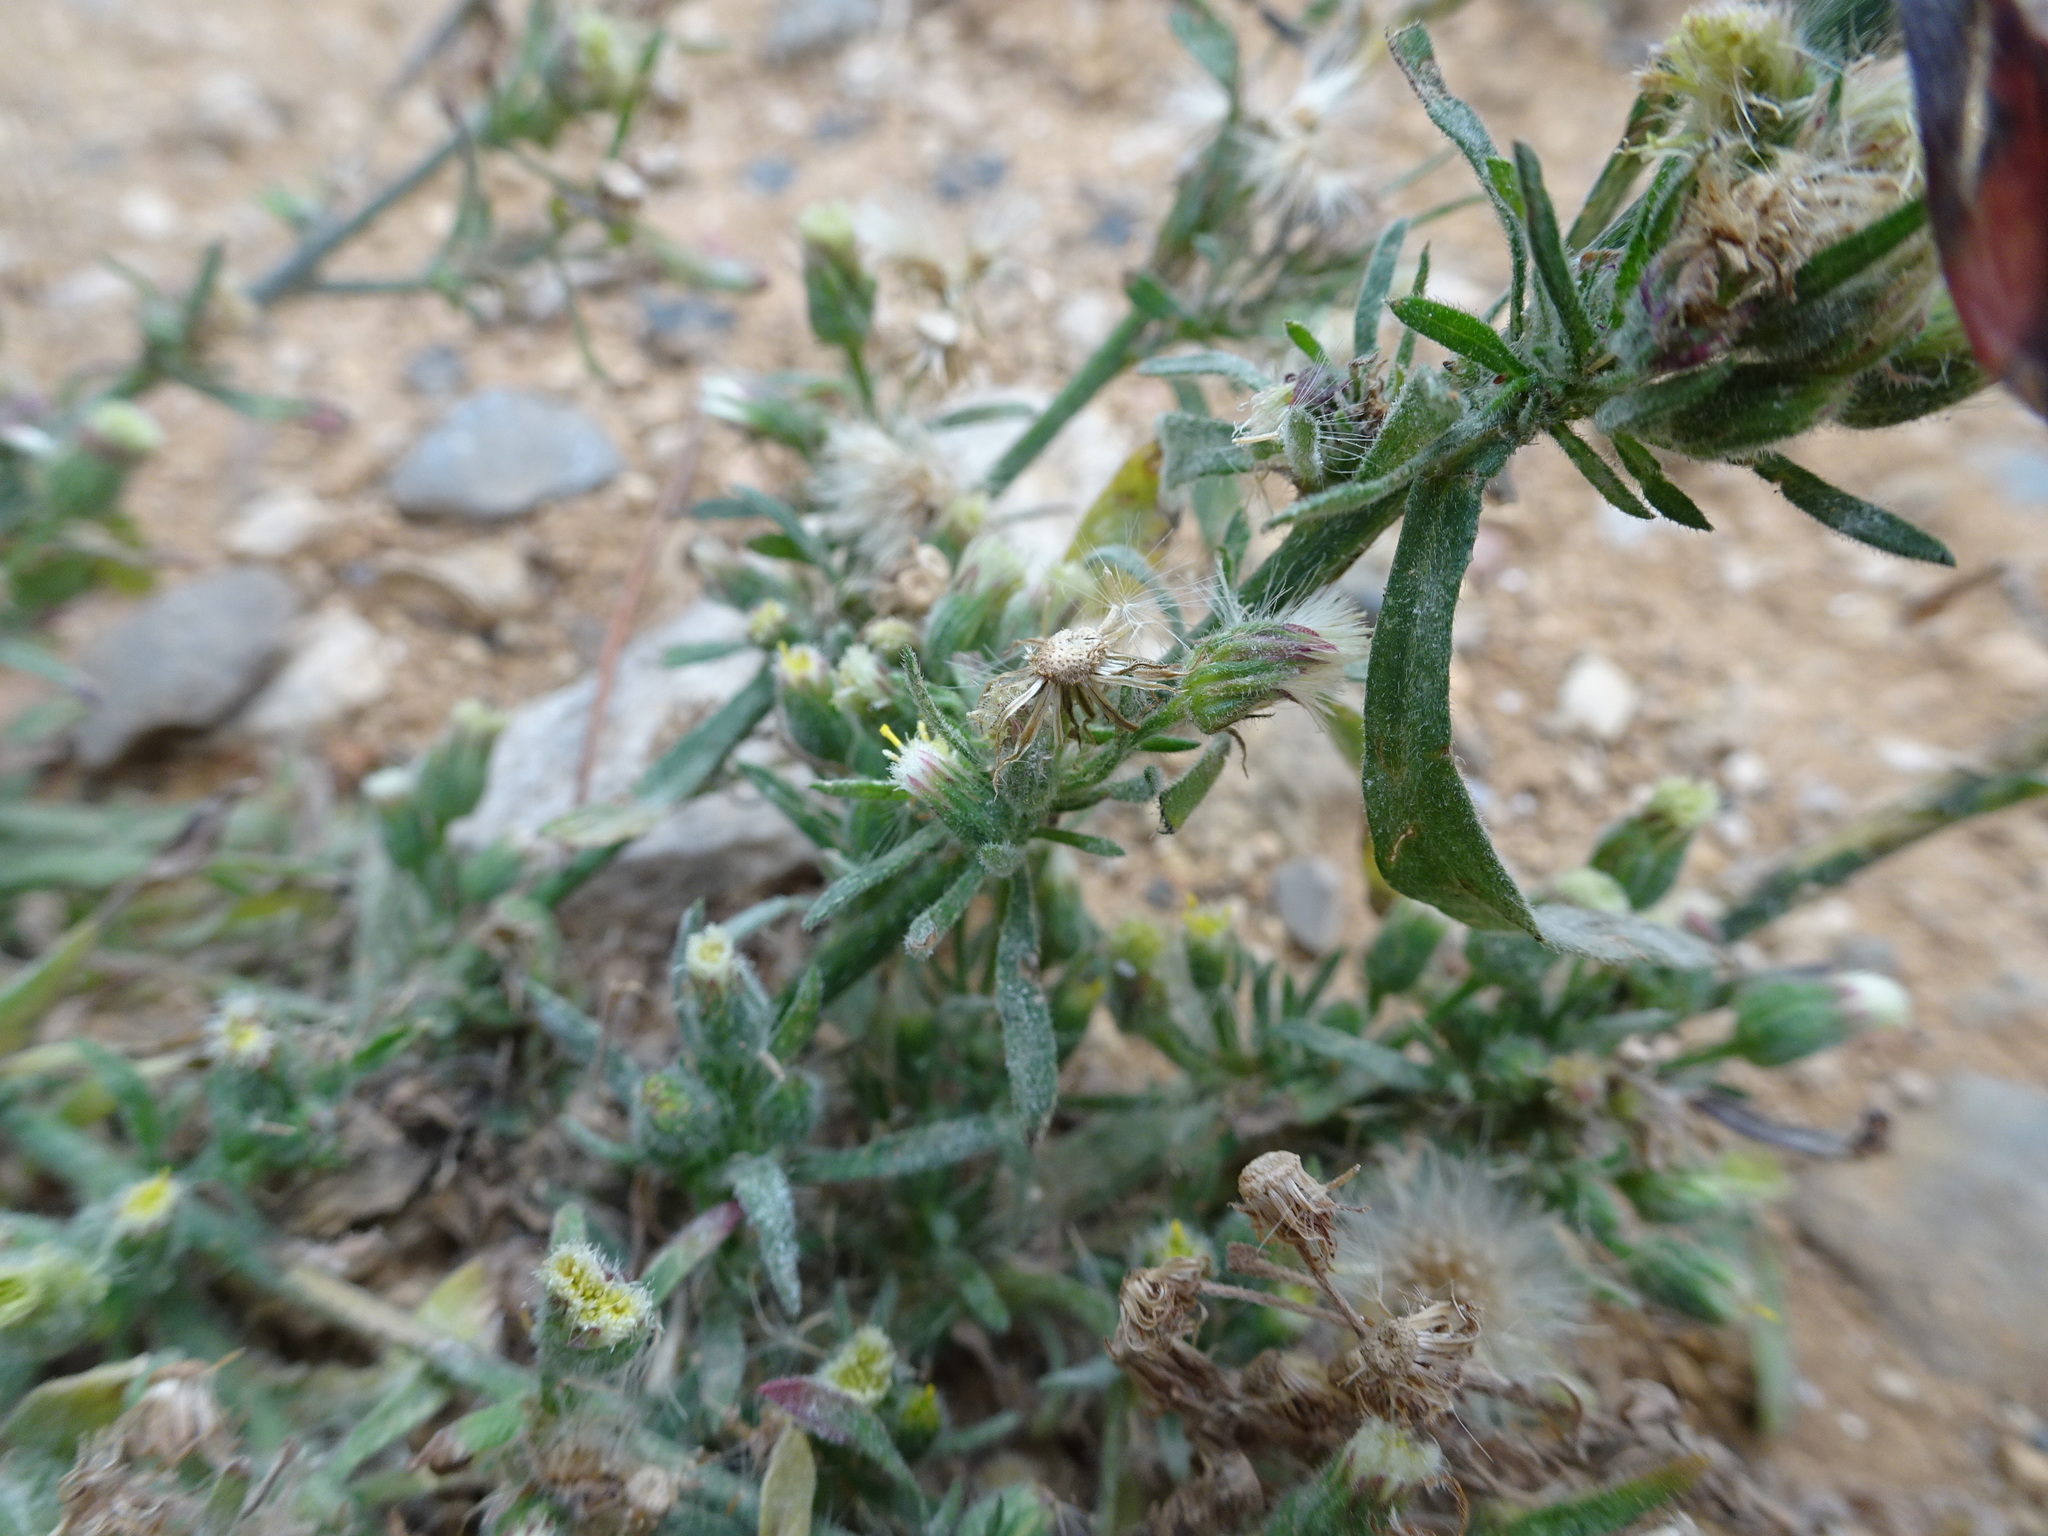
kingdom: Plantae
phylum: Tracheophyta
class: Magnoliopsida
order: Asterales
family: Asteraceae
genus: Erigeron
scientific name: Erigeron sumatrensis
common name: Daisy
